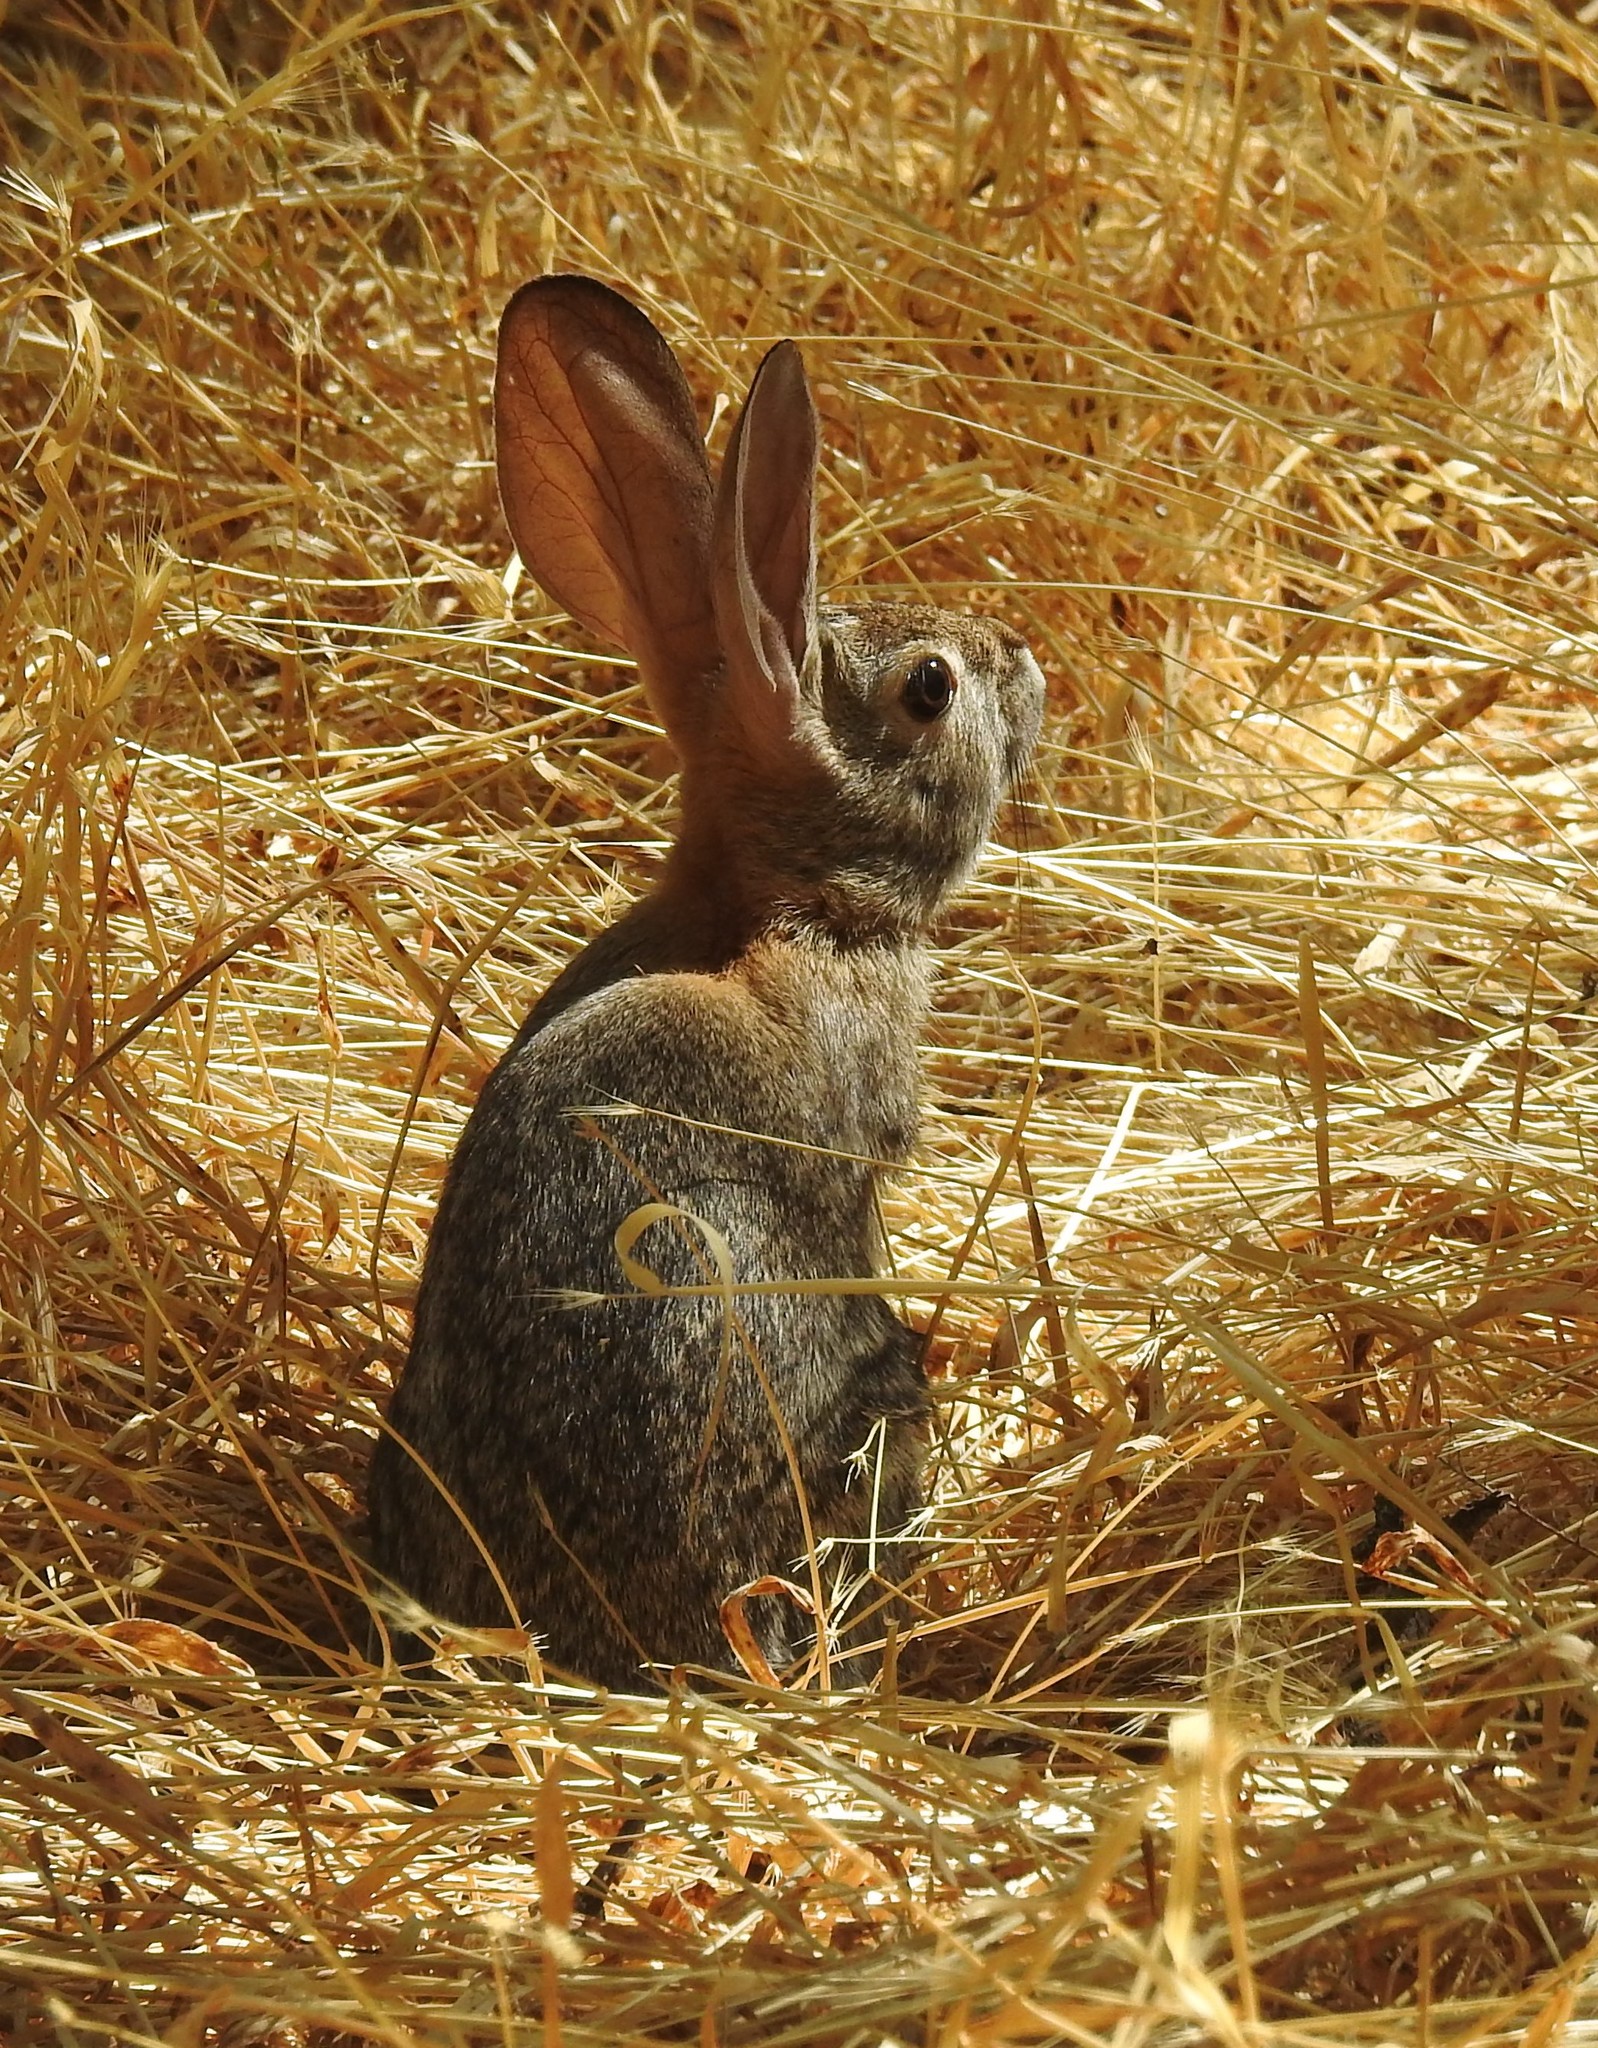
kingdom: Animalia
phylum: Chordata
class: Mammalia
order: Lagomorpha
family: Leporidae
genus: Sylvilagus
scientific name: Sylvilagus audubonii
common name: Desert cottontail
